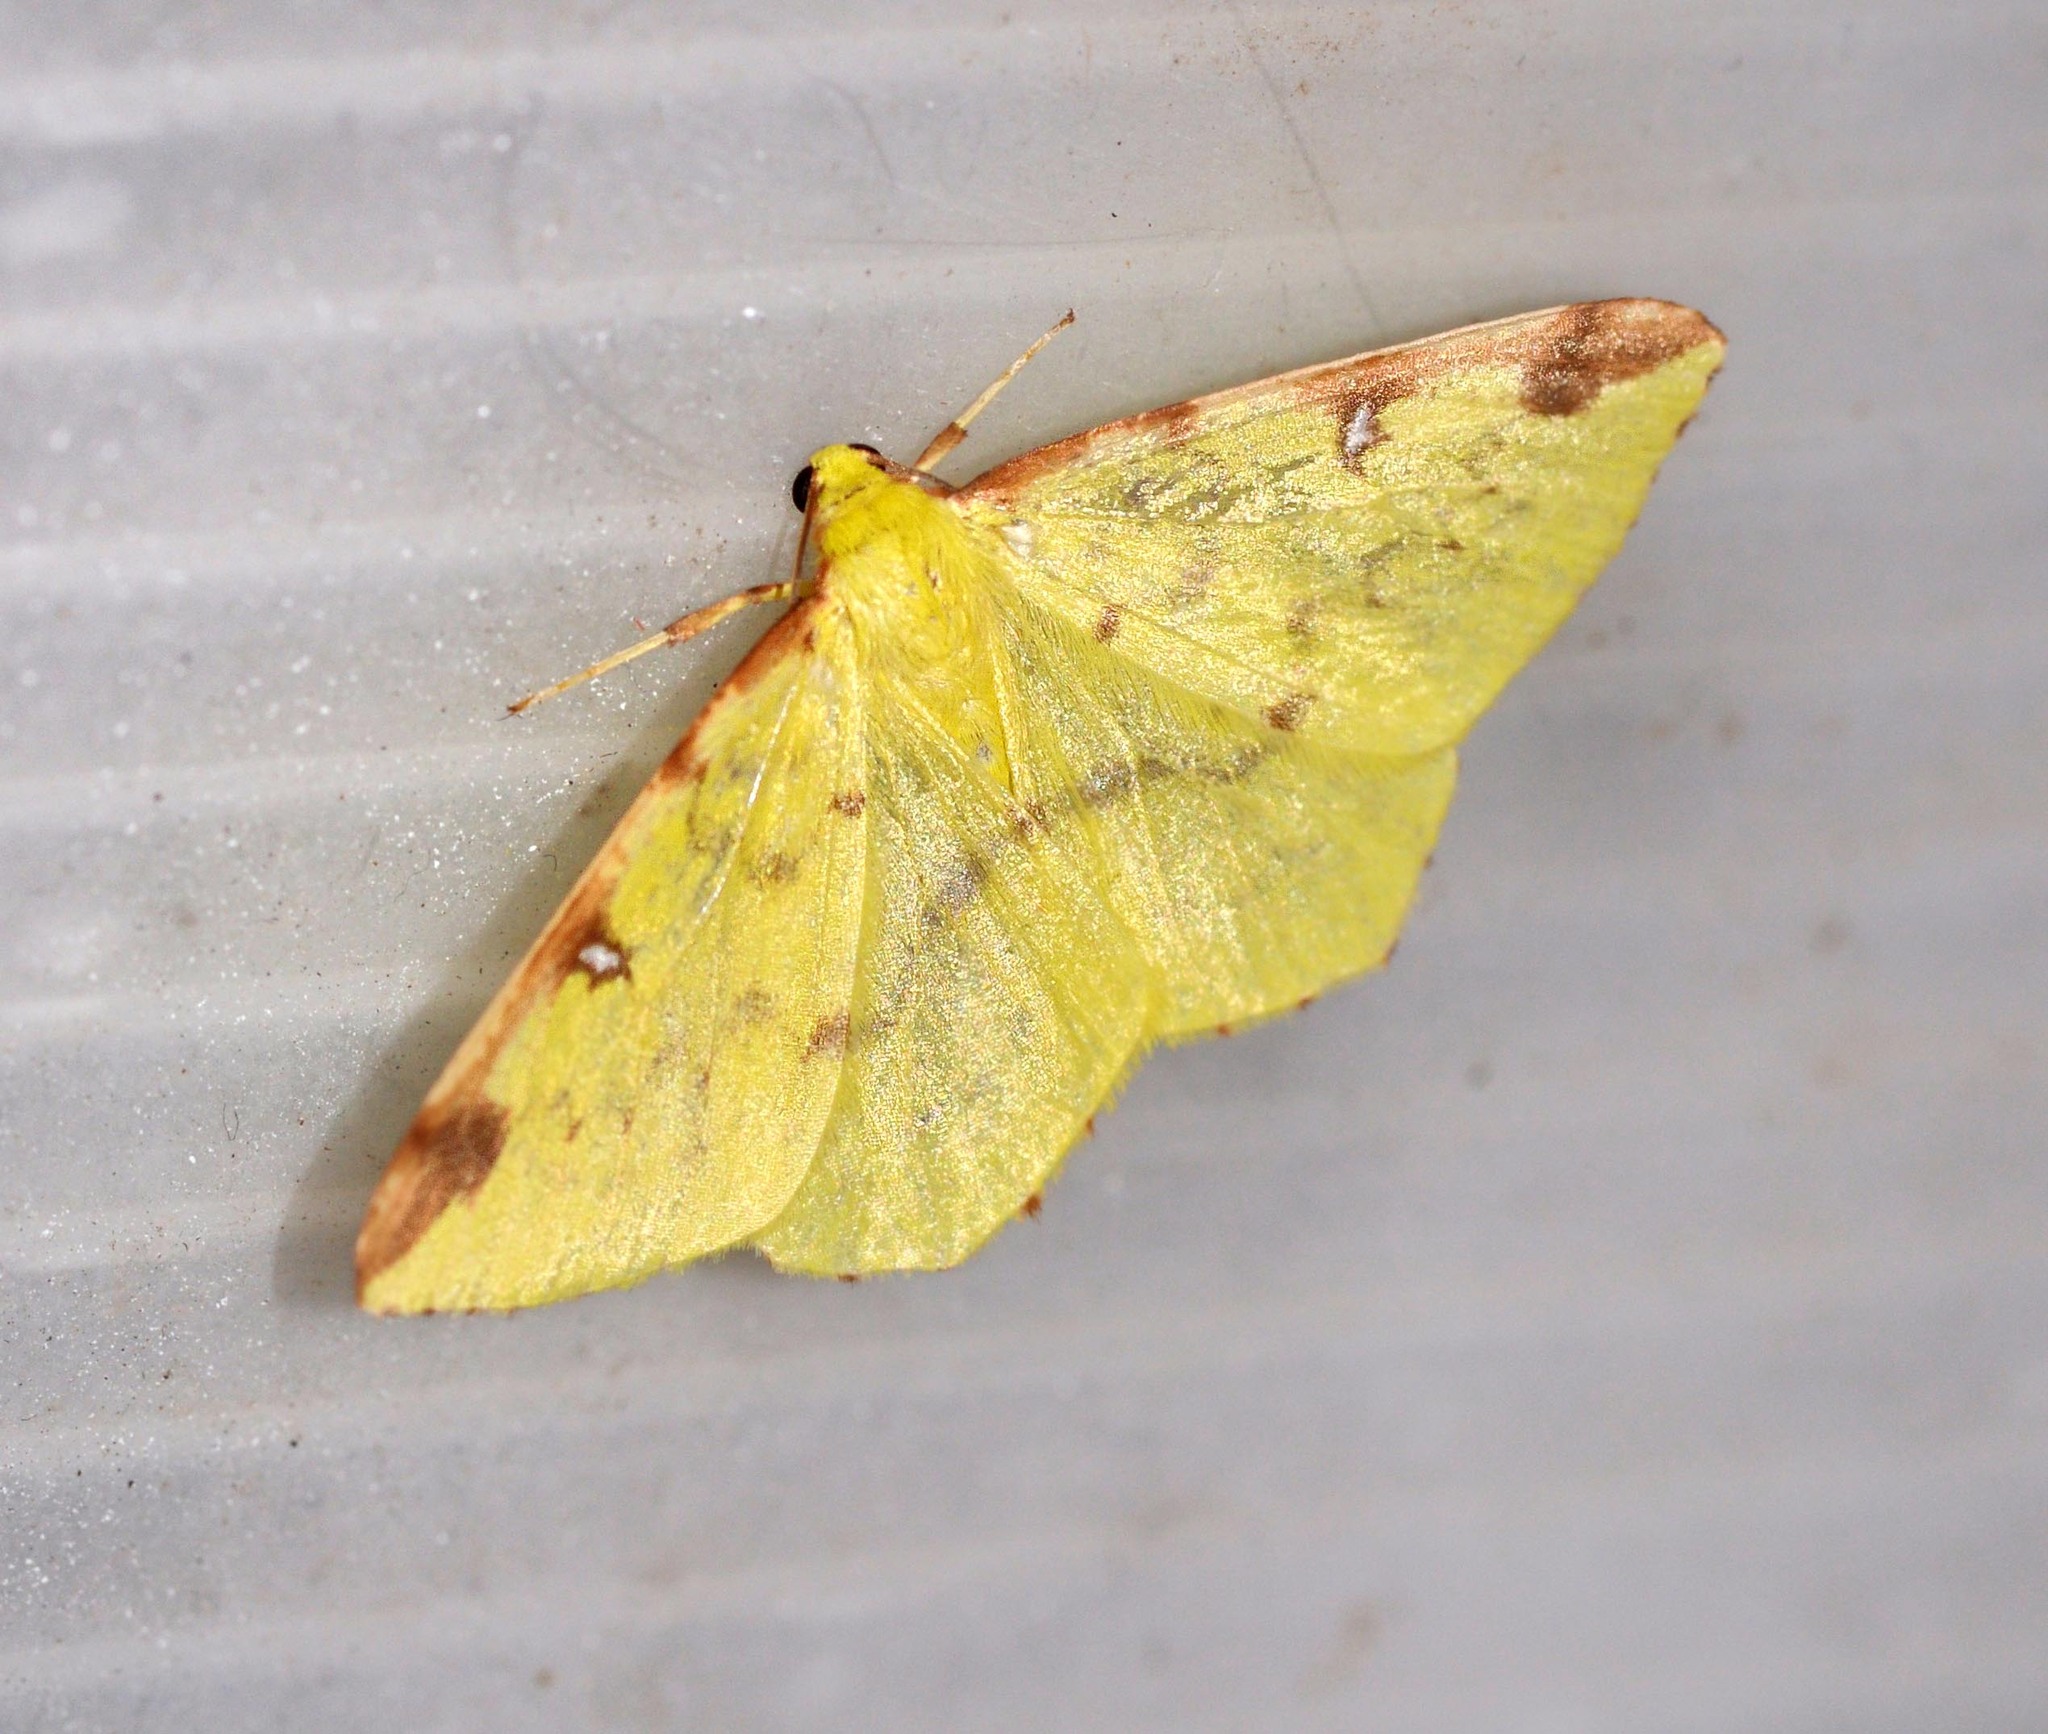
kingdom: Animalia
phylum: Arthropoda
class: Insecta
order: Lepidoptera
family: Geometridae
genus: Opisthograptis
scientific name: Opisthograptis luteolata
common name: Brimstone moth
